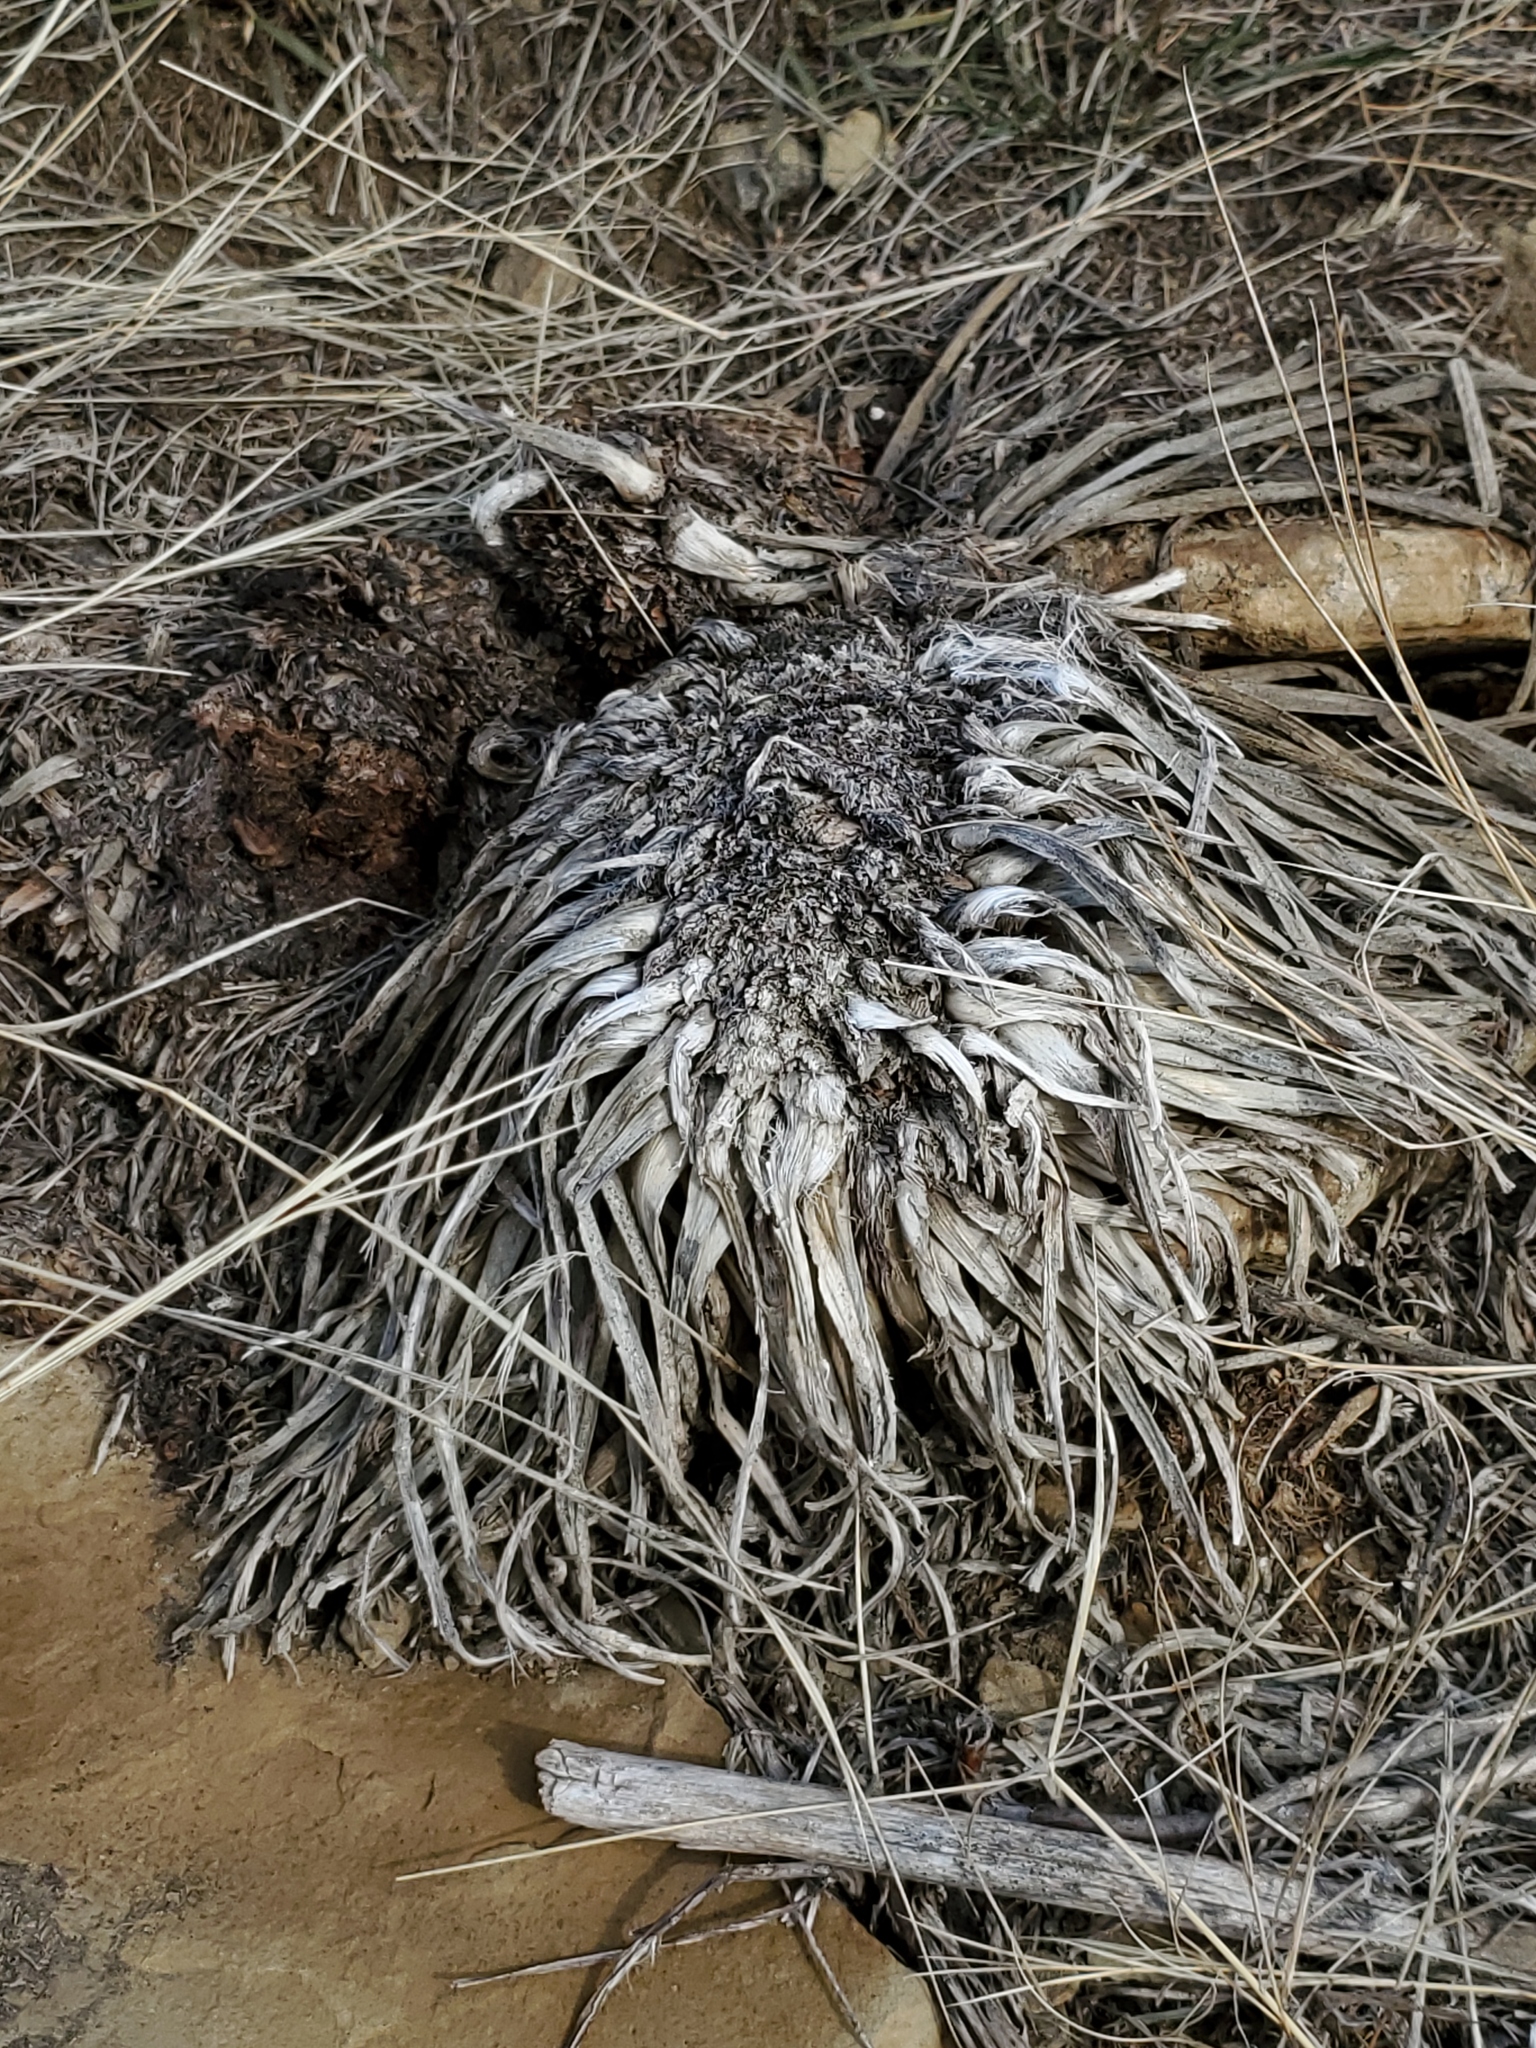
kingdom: Plantae
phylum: Tracheophyta
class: Liliopsida
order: Asparagales
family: Asparagaceae
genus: Yucca
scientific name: Yucca glauca
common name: Great plains yucca
